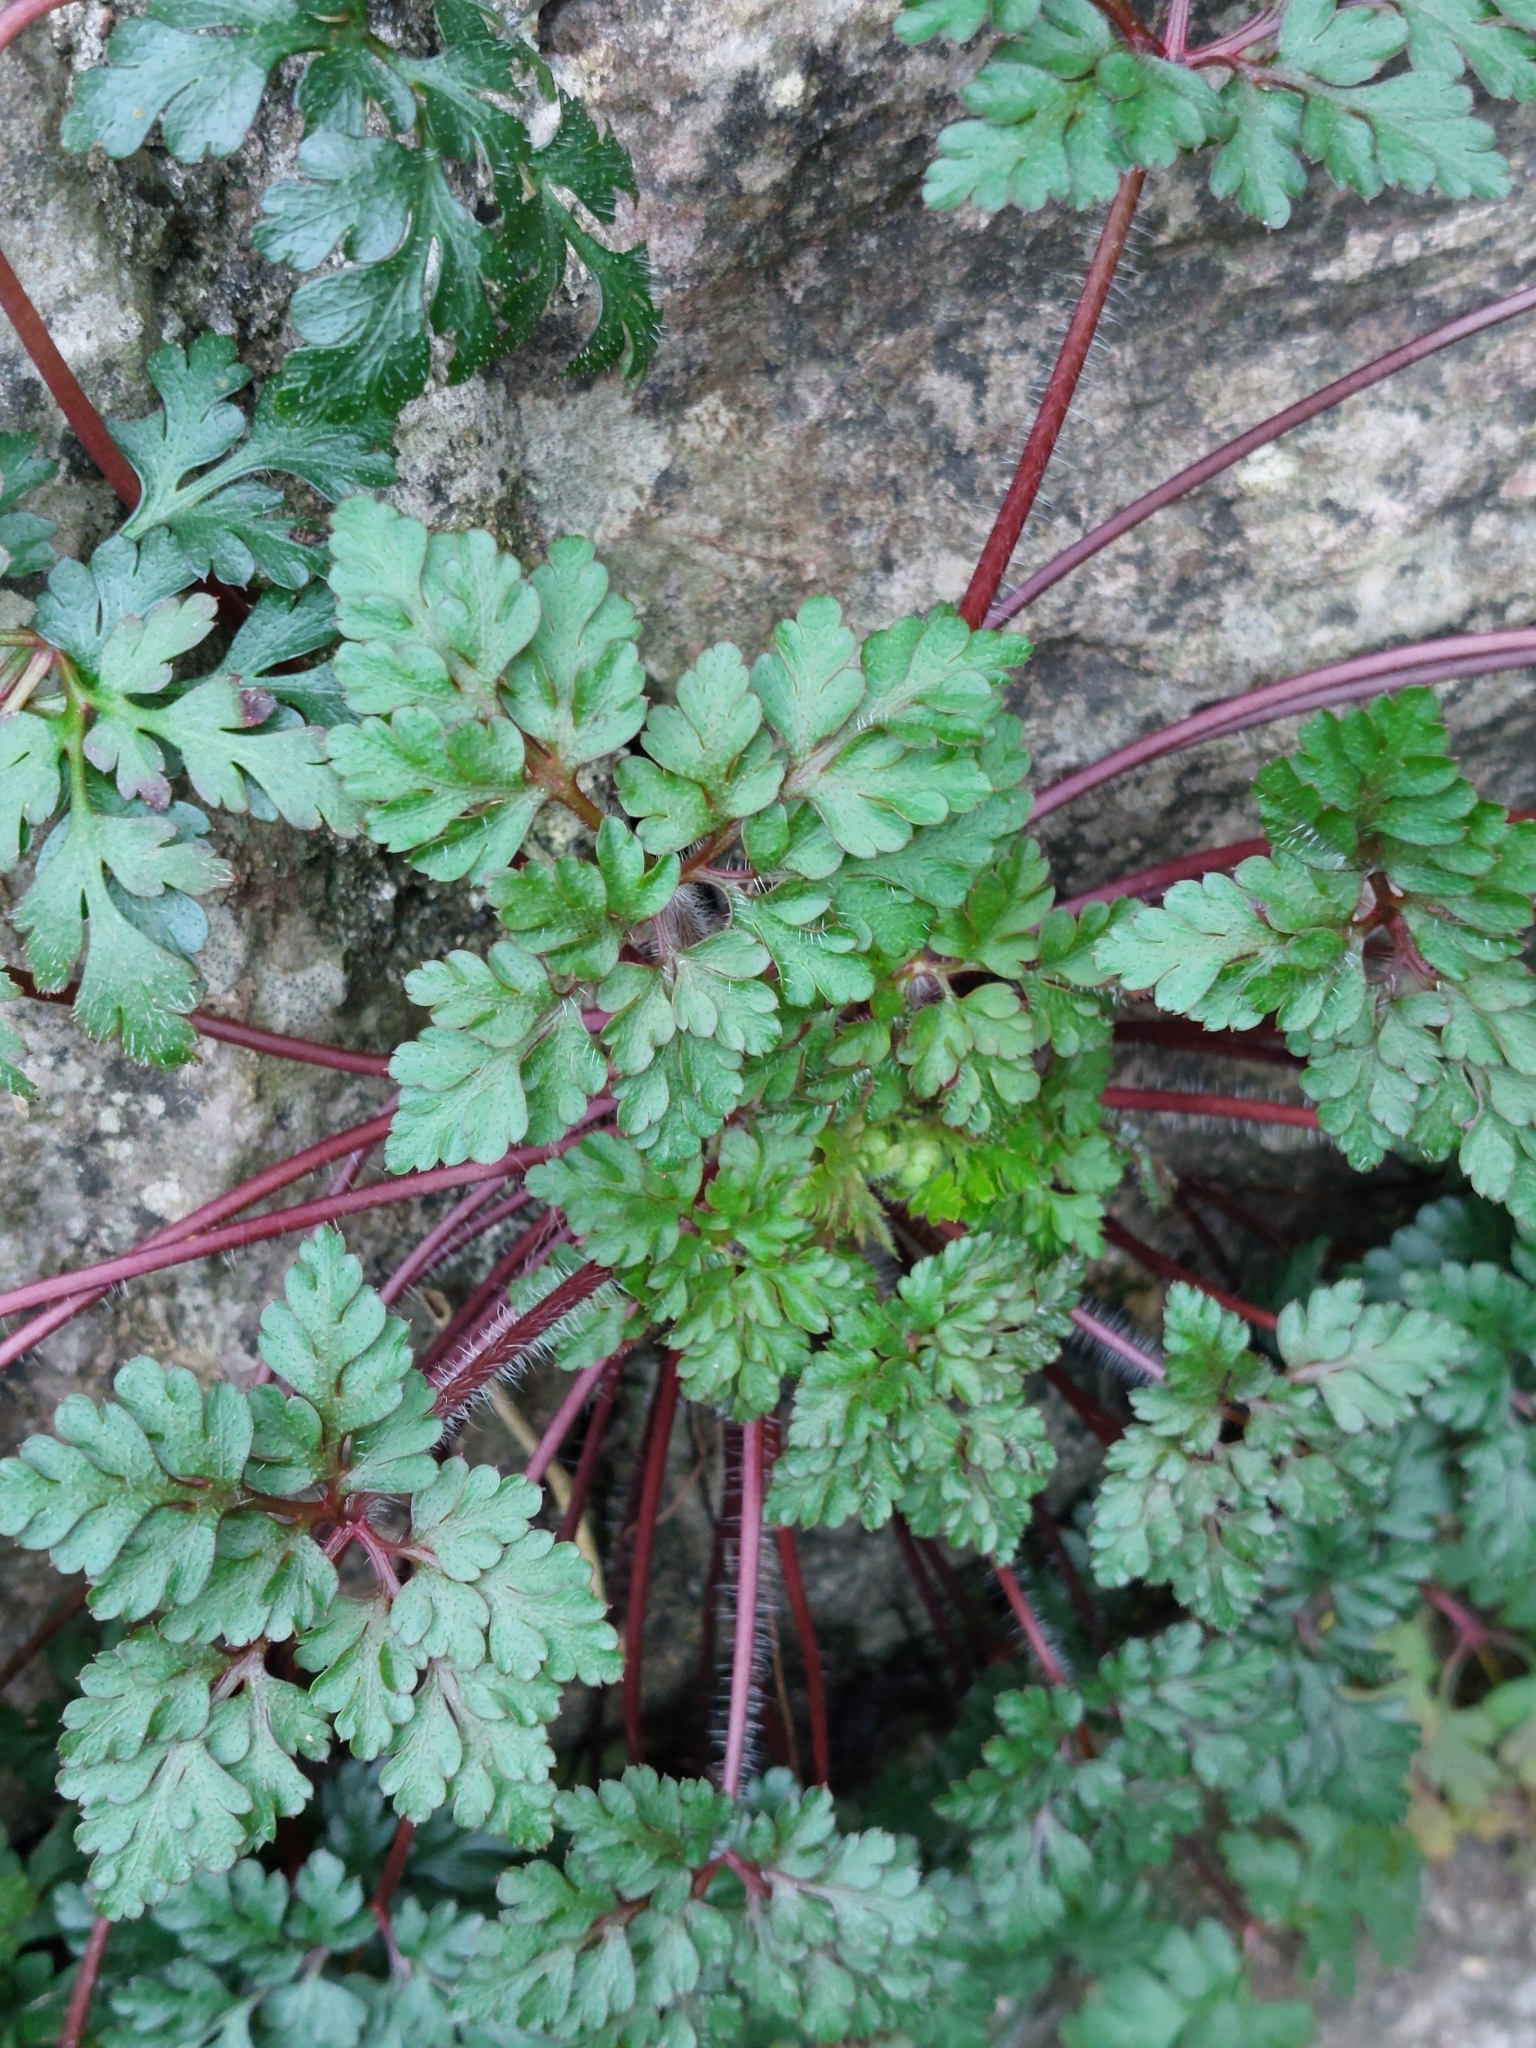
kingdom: Plantae
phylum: Tracheophyta
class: Magnoliopsida
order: Geraniales
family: Geraniaceae
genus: Geranium
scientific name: Geranium robertianum
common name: Herb-robert
